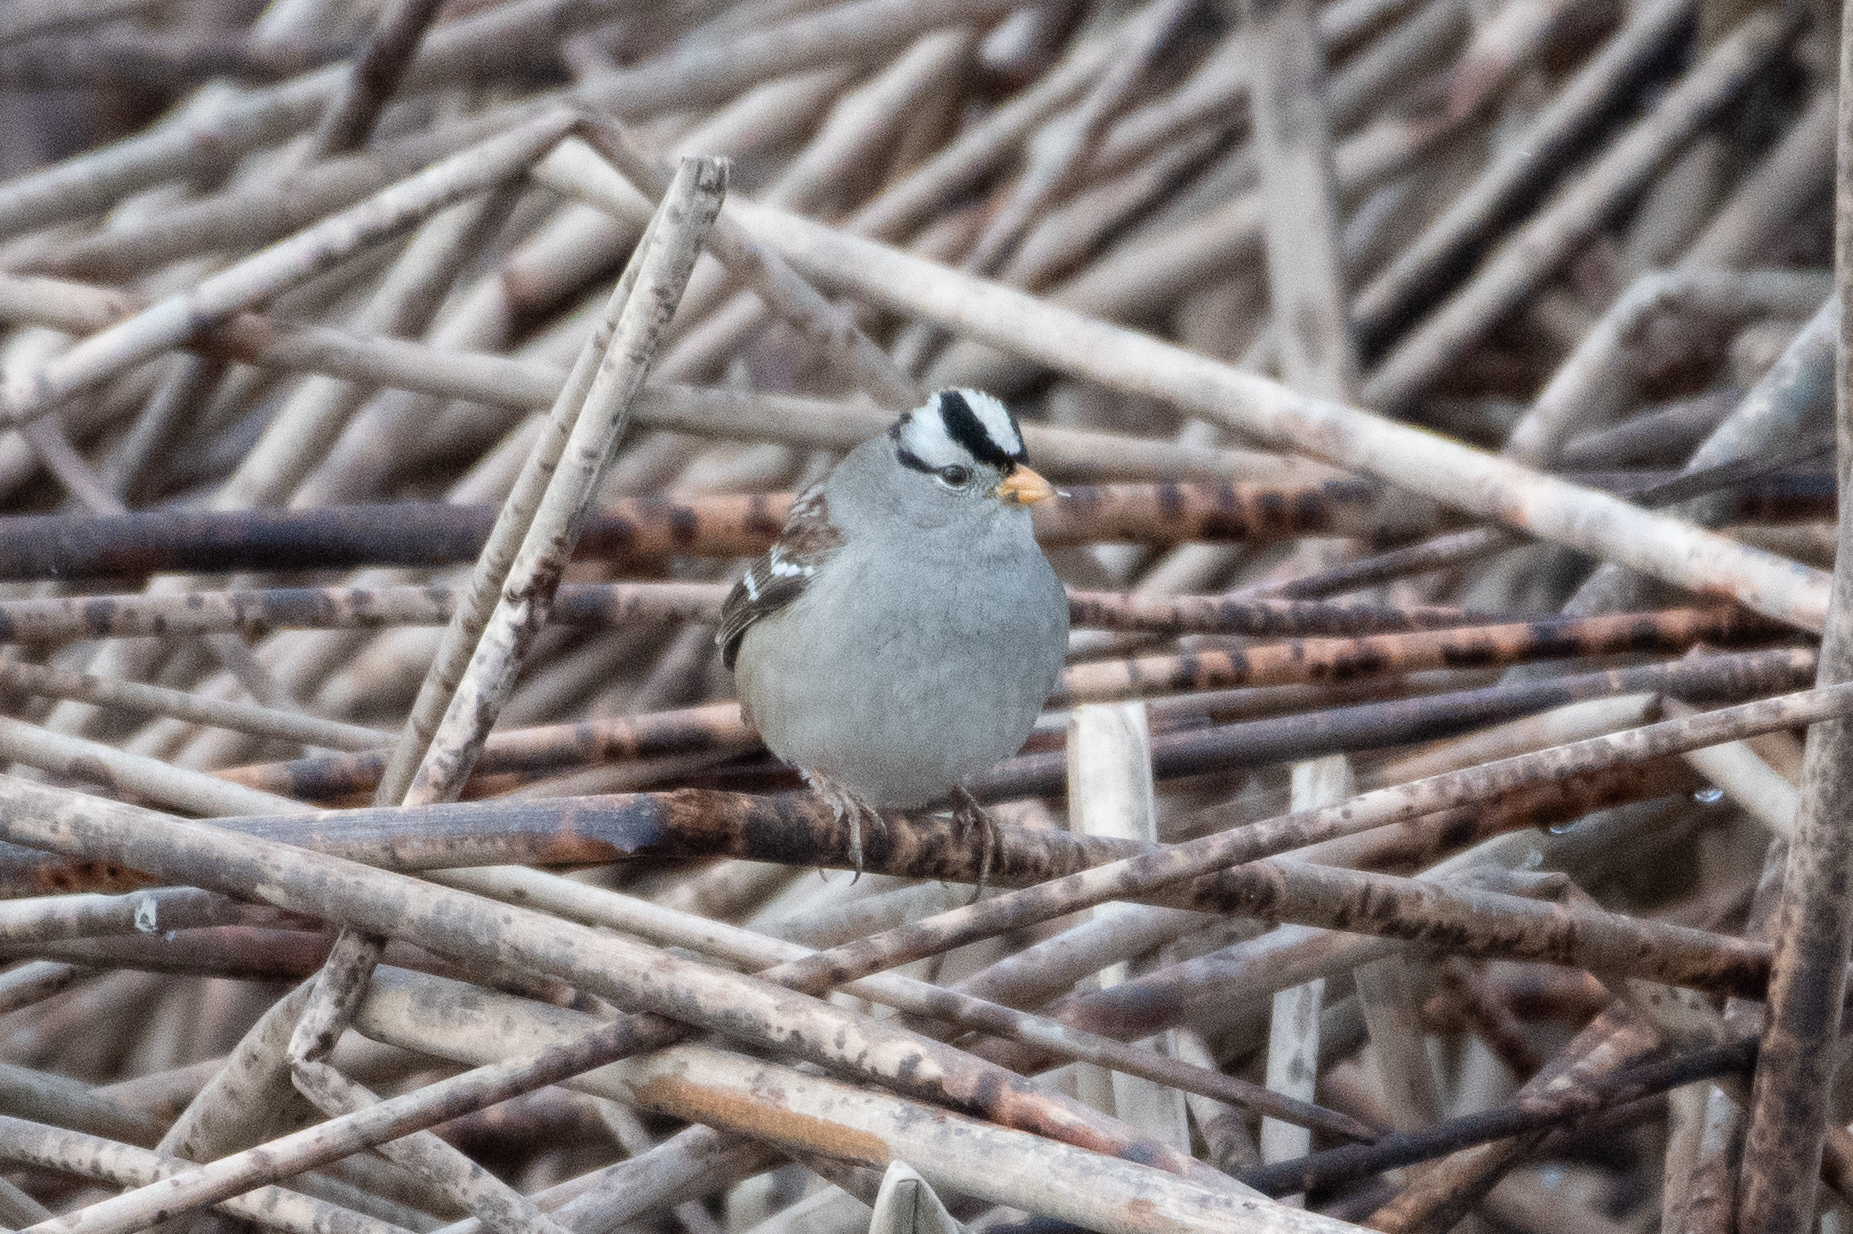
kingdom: Animalia
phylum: Chordata
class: Aves
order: Passeriformes
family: Passerellidae
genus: Zonotrichia
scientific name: Zonotrichia leucophrys
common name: White-crowned sparrow
